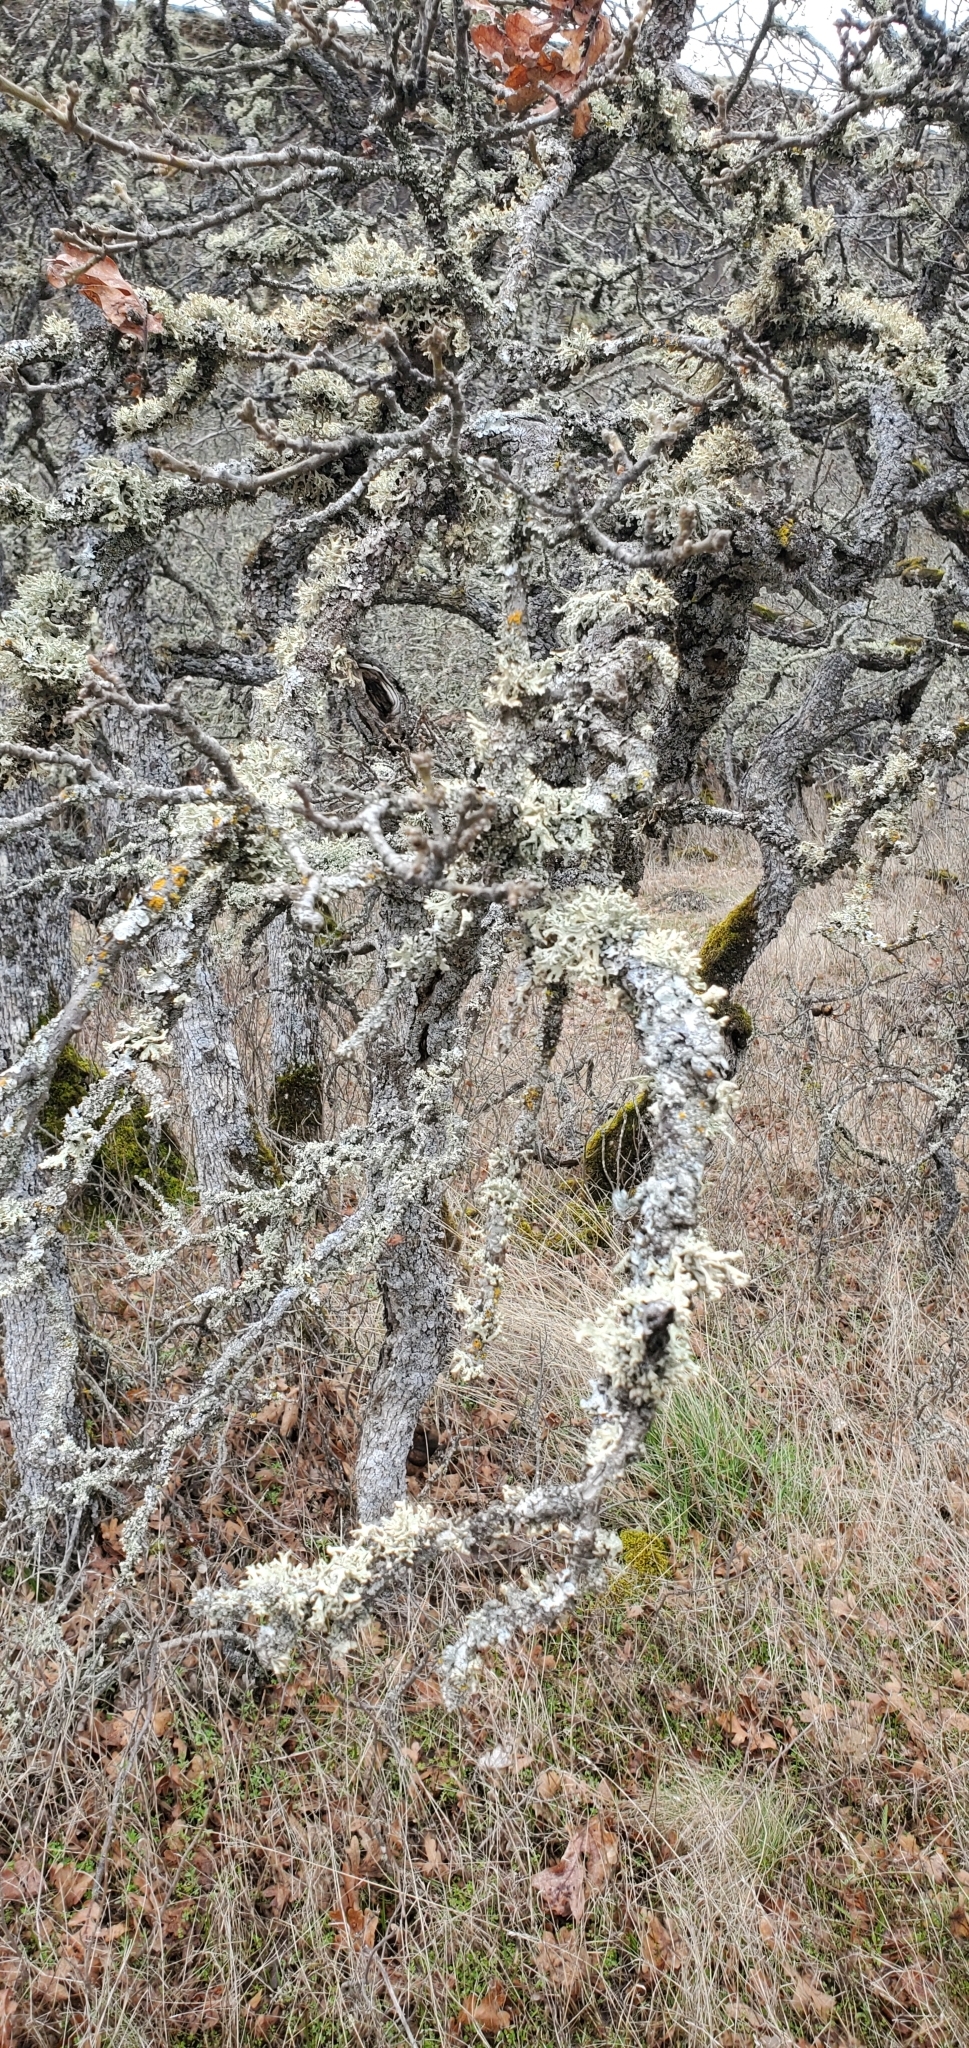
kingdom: Fungi
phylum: Ascomycota
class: Lecanoromycetes
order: Lecanorales
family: Parmeliaceae
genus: Parmelia
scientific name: Parmelia sulcata
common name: Netted shield lichen
